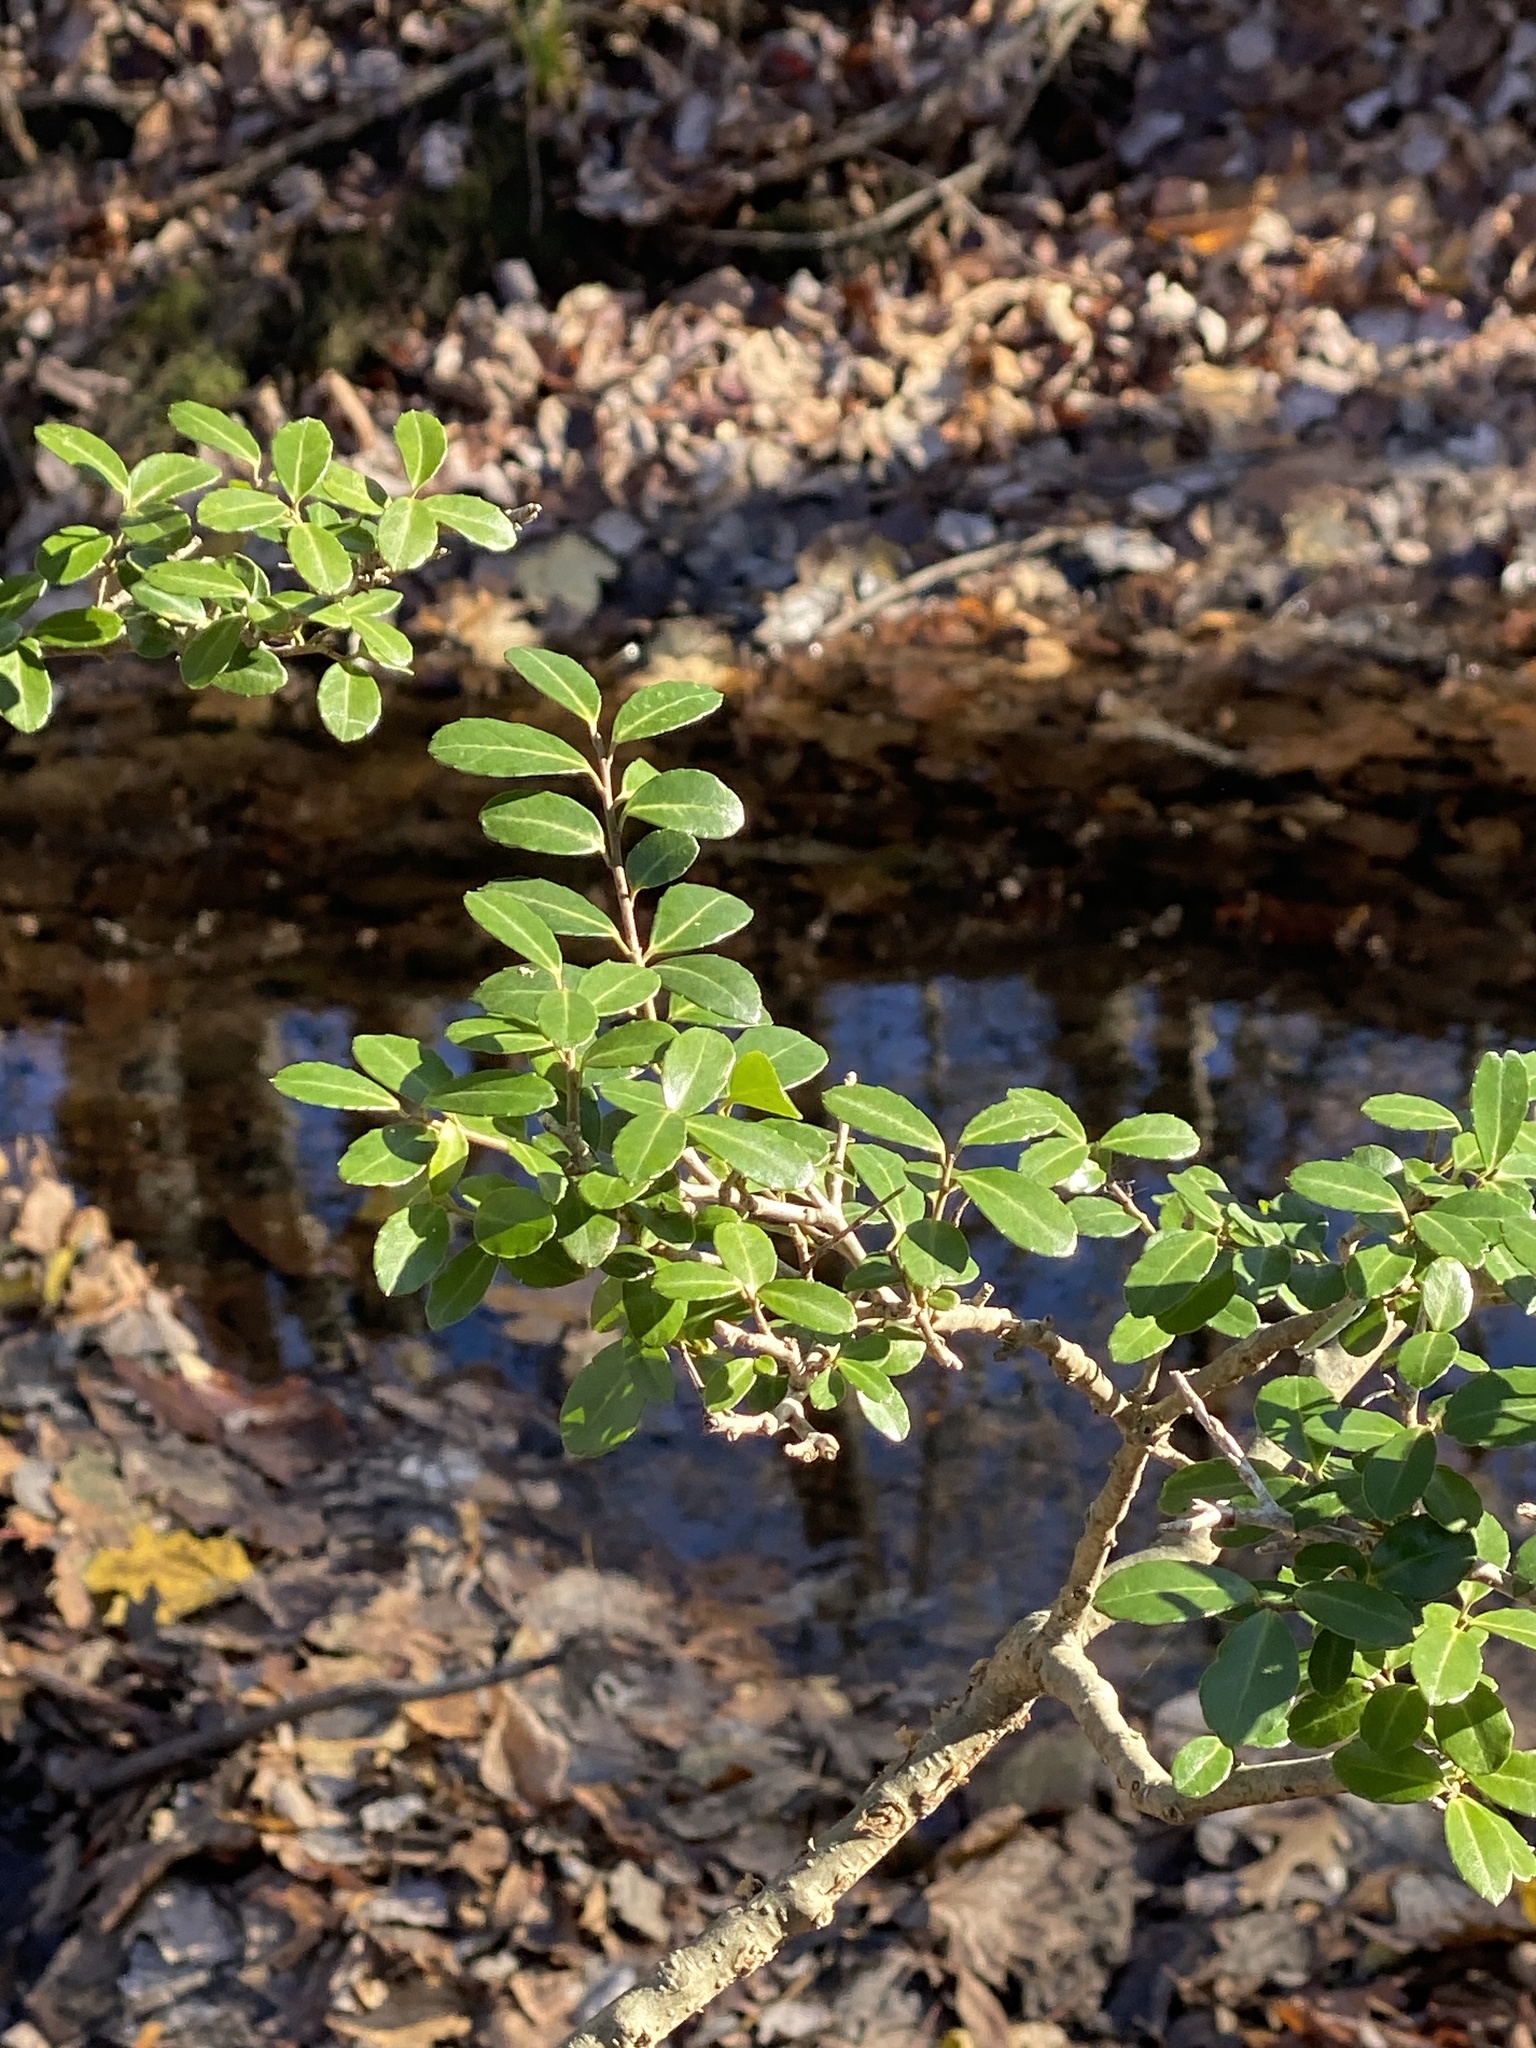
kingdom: Plantae
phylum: Tracheophyta
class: Magnoliopsida
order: Aquifoliales
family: Aquifoliaceae
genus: Ilex
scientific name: Ilex crenata
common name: Japanese holly
